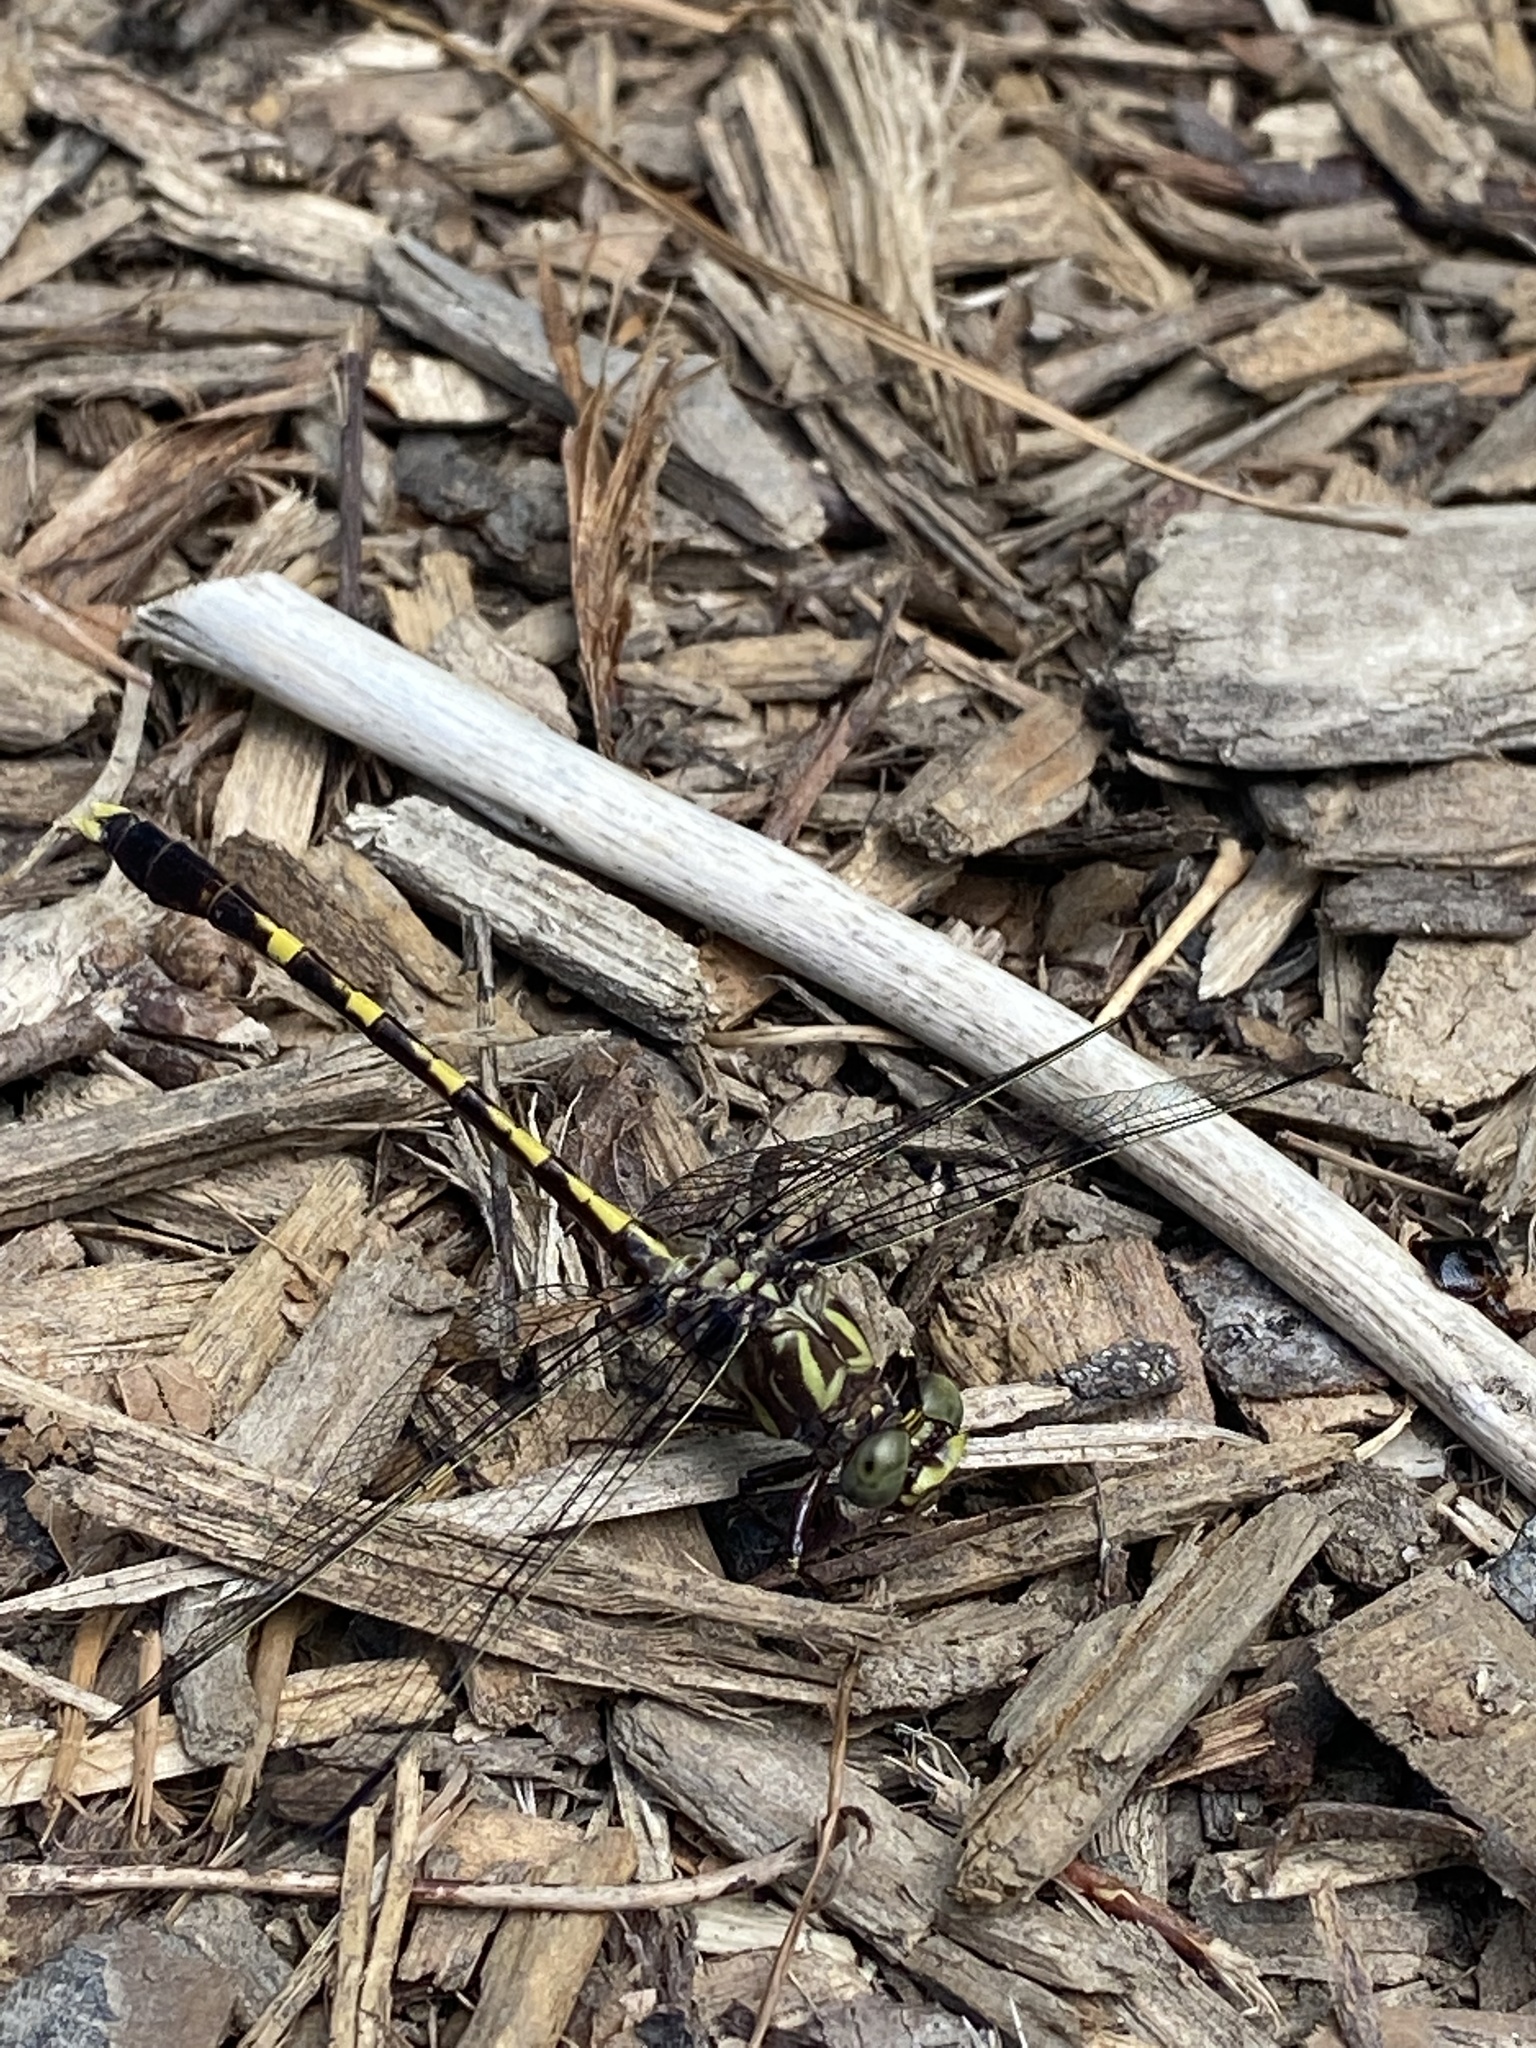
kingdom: Animalia
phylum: Arthropoda
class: Insecta
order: Odonata
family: Gomphidae
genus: Progomphus
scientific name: Progomphus obscurus
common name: Common sanddragon
